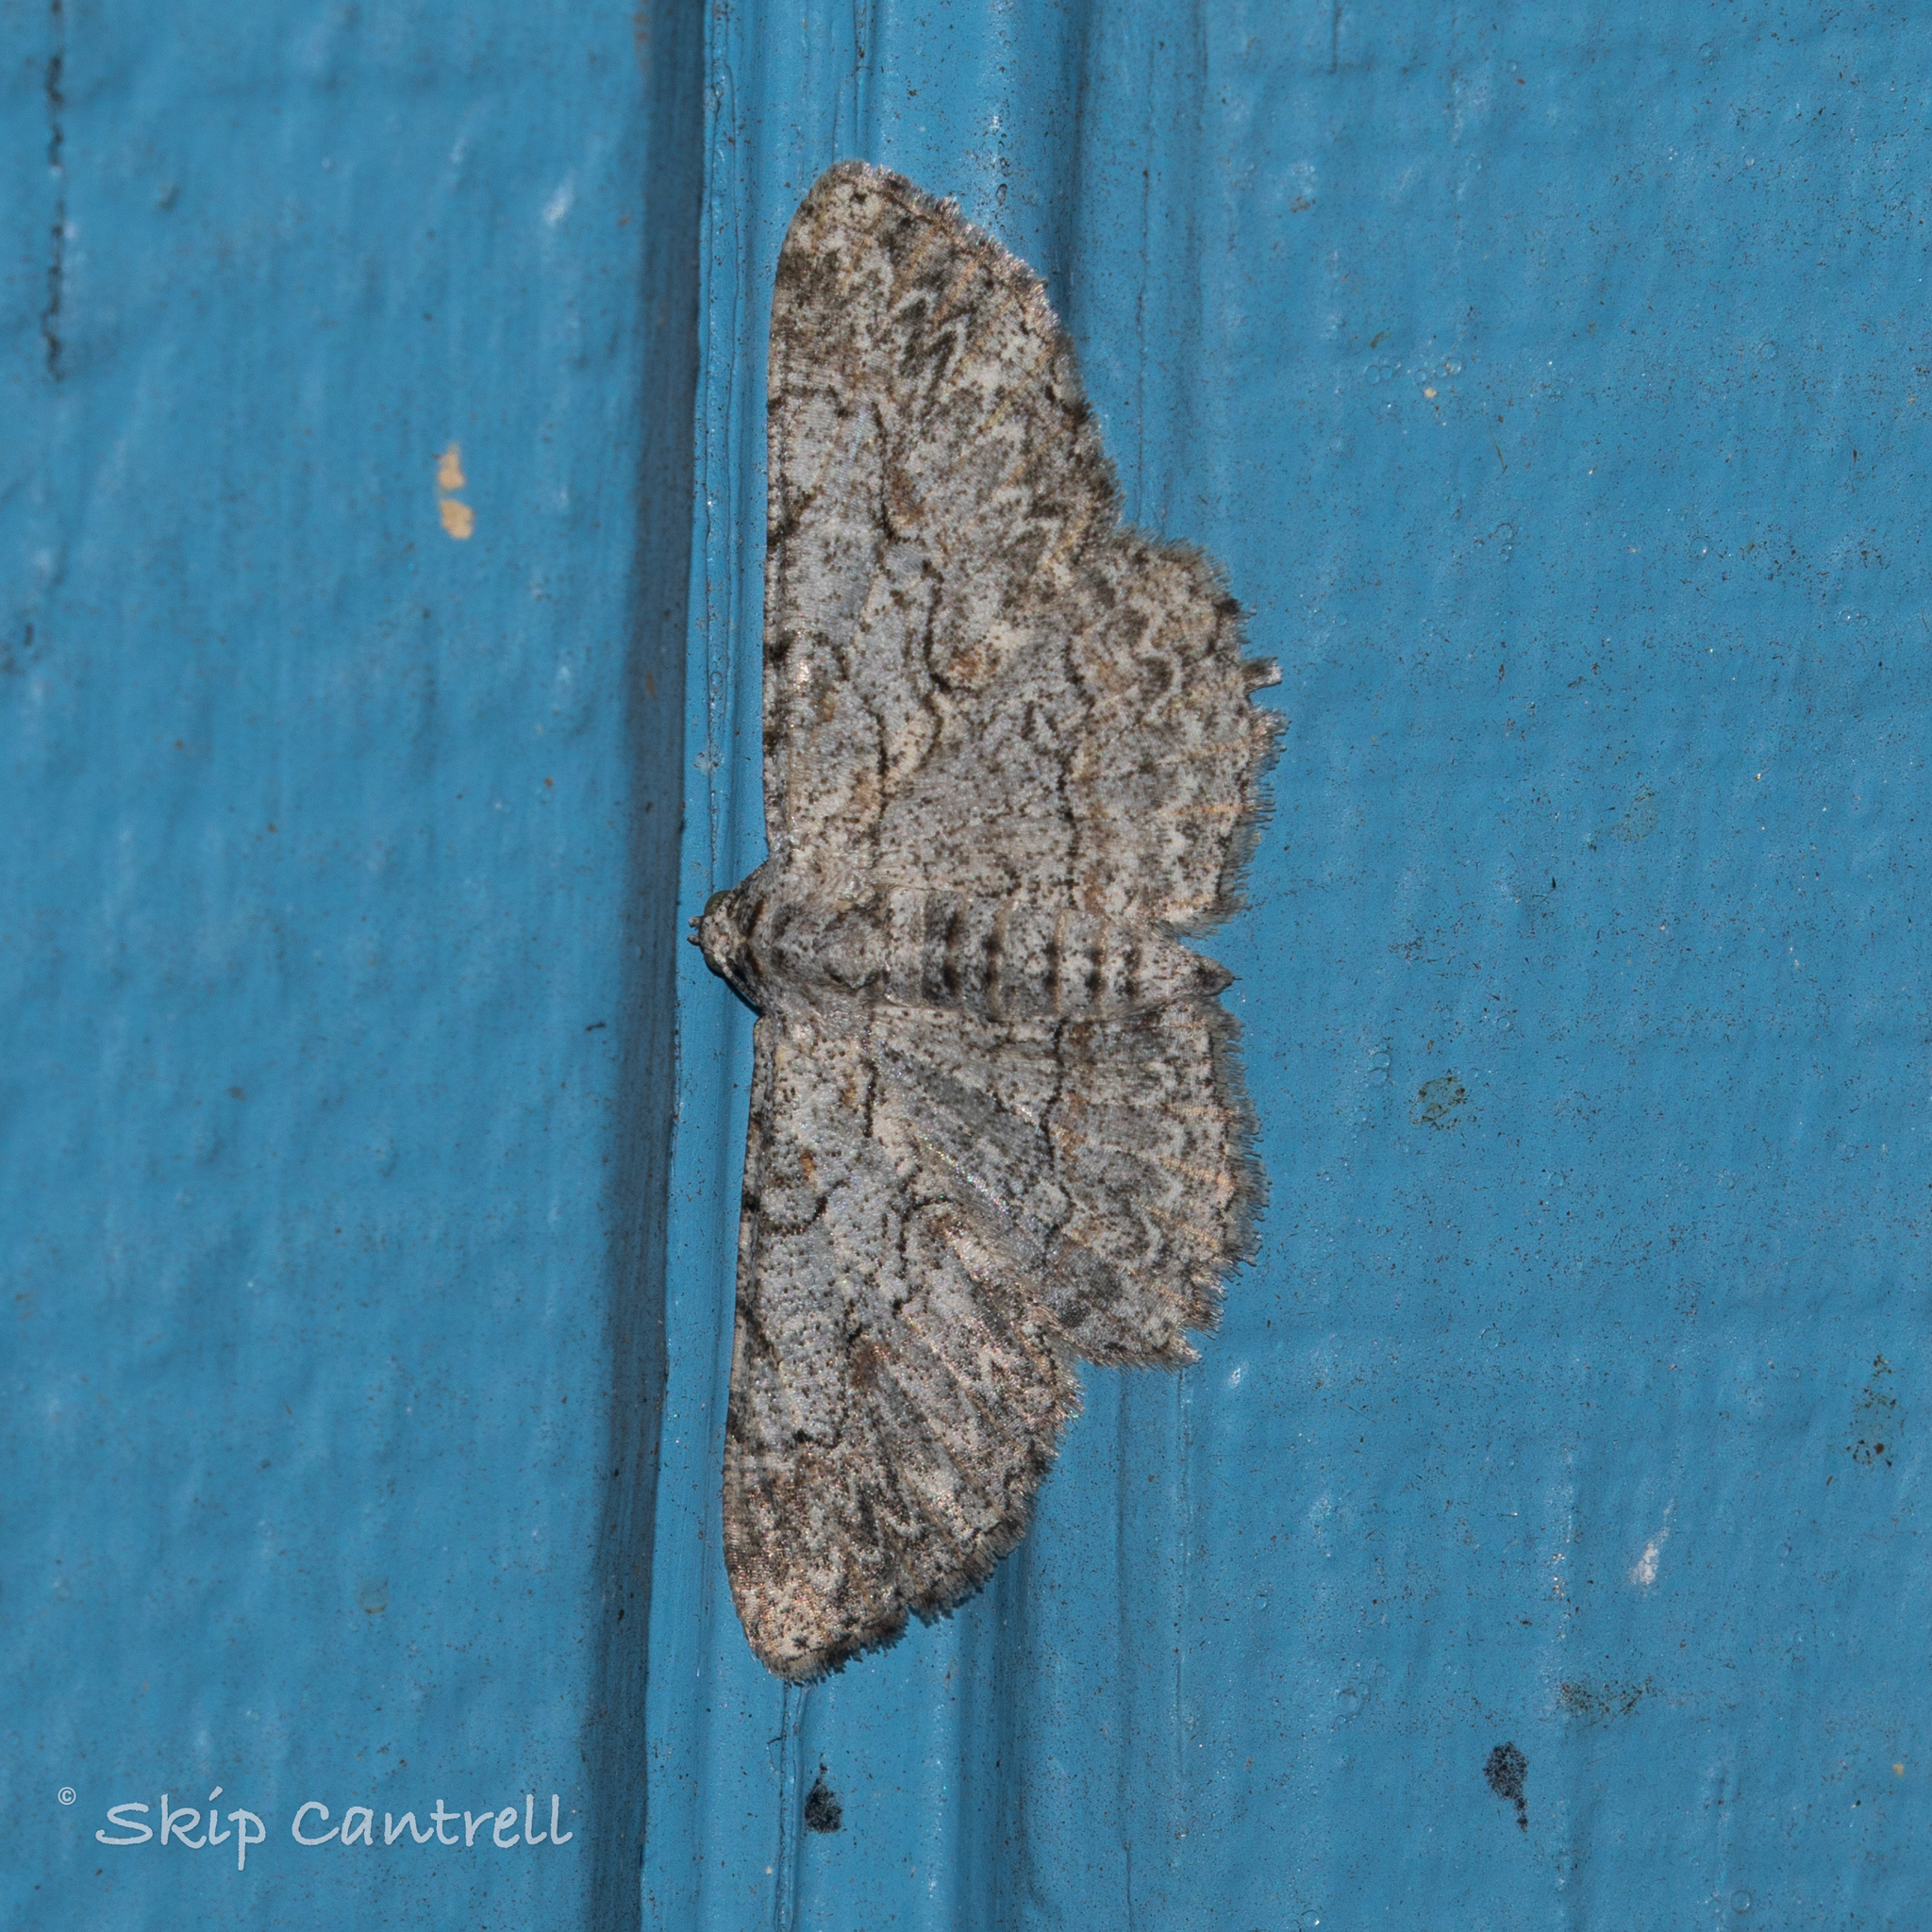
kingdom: Animalia
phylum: Arthropoda
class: Insecta
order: Lepidoptera
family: Geometridae
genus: Iridopsis
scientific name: Iridopsis defectaria
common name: Brown-shaded gray
